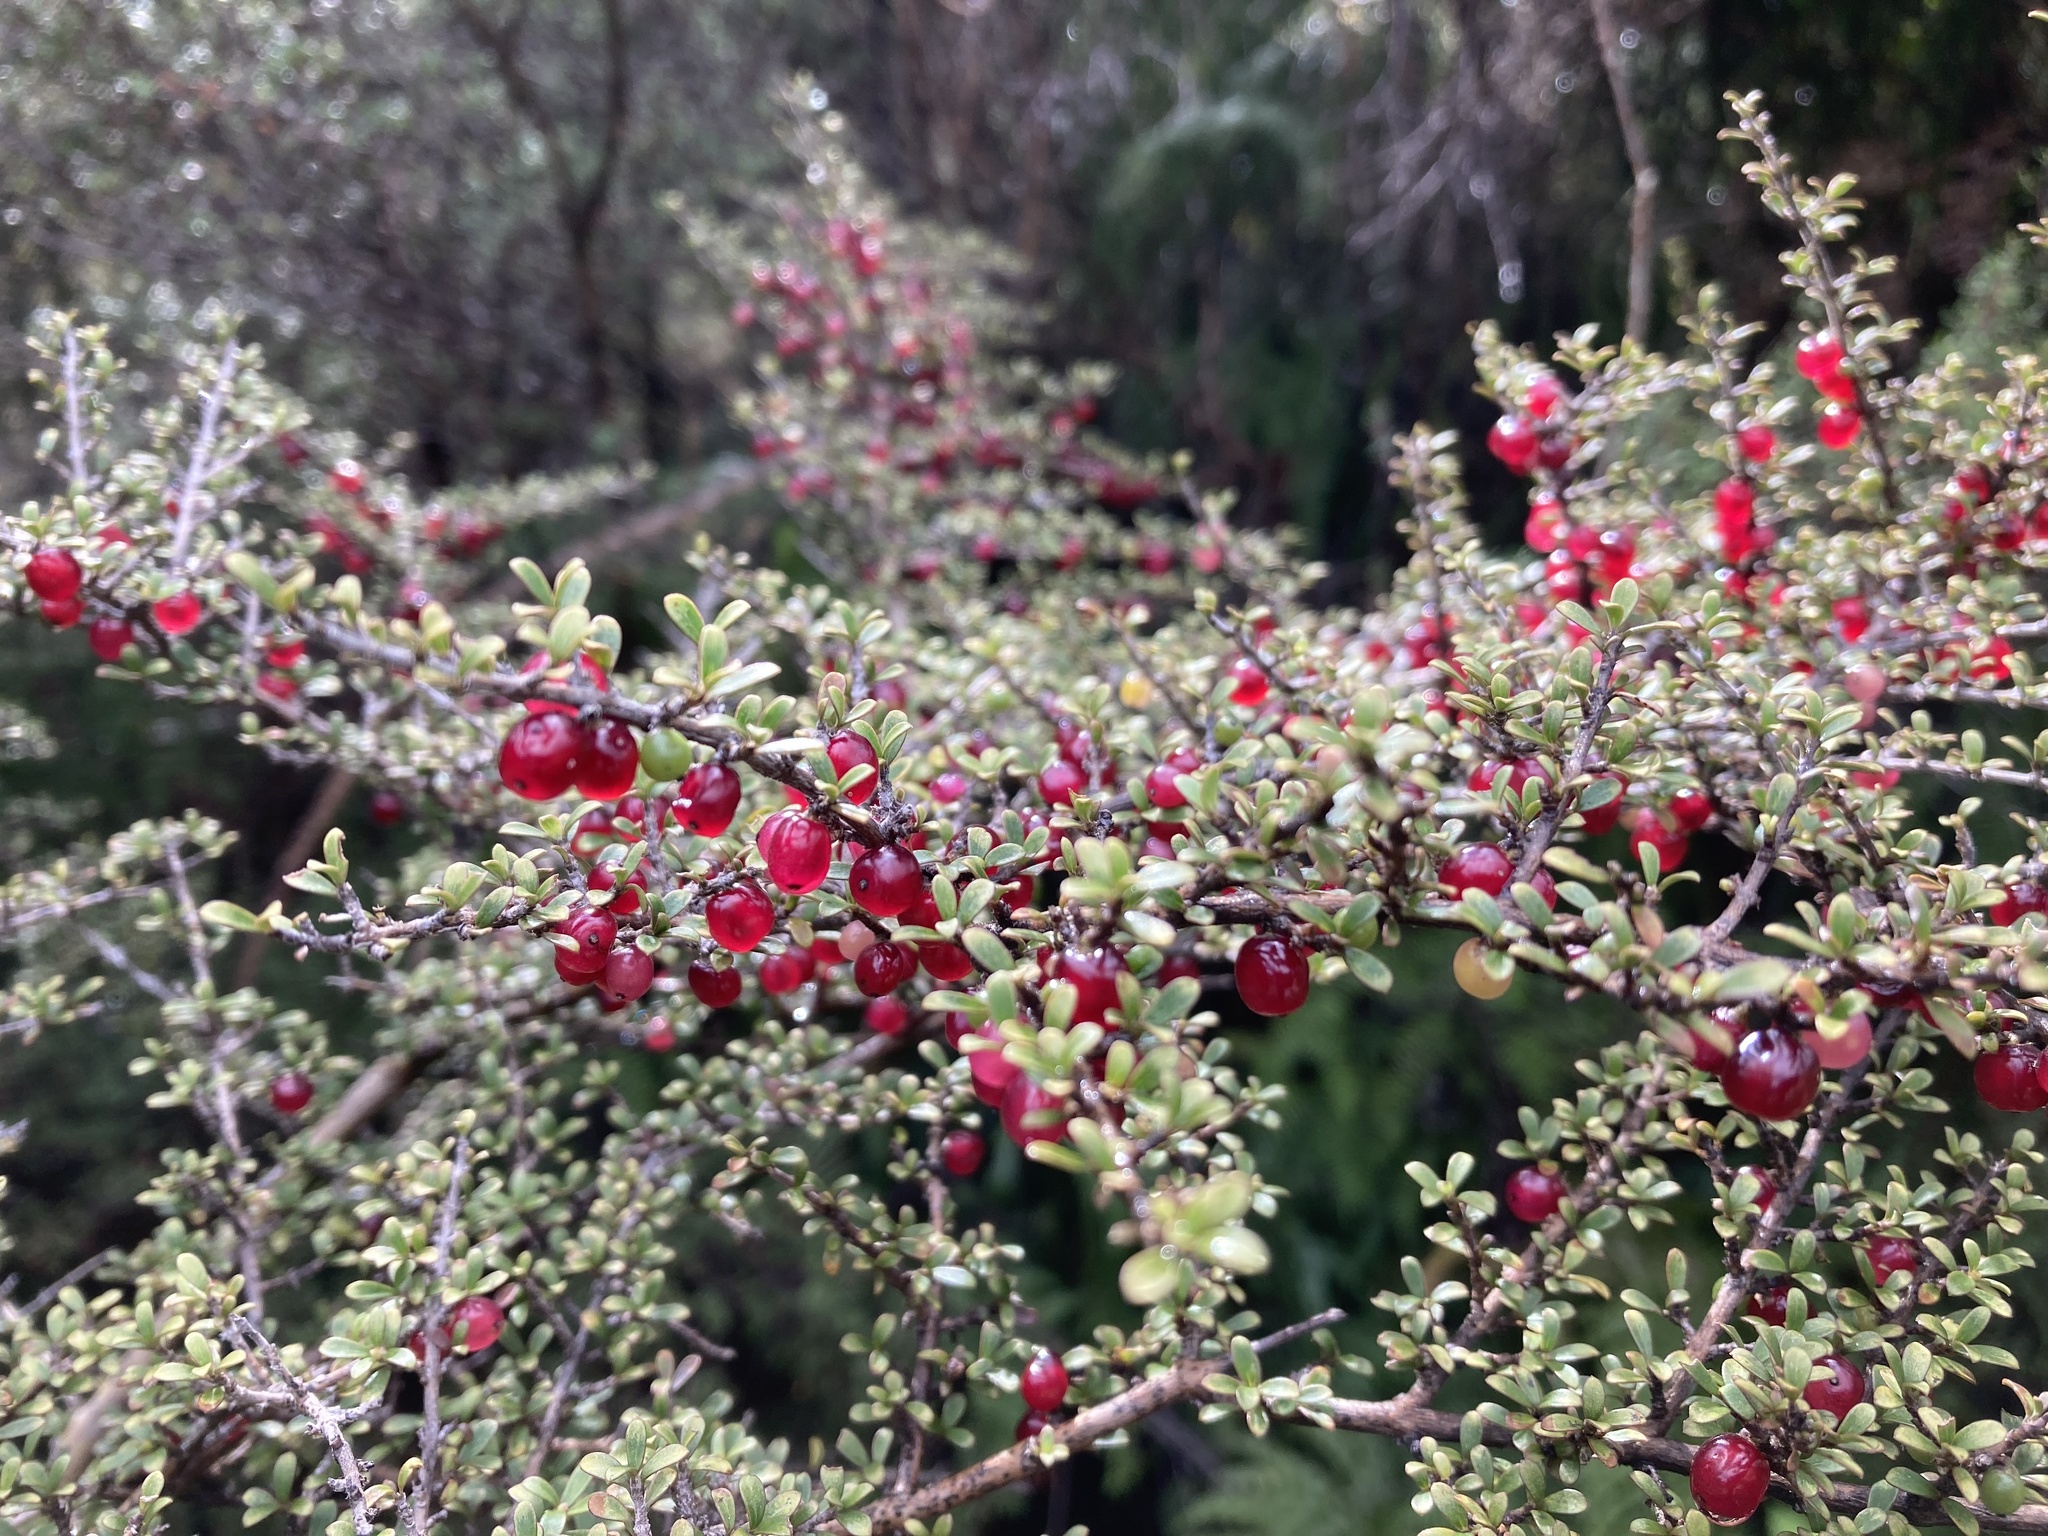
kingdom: Plantae
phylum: Tracheophyta
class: Magnoliopsida
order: Gentianales
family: Rubiaceae
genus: Coprosma
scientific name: Coprosma dumosa
